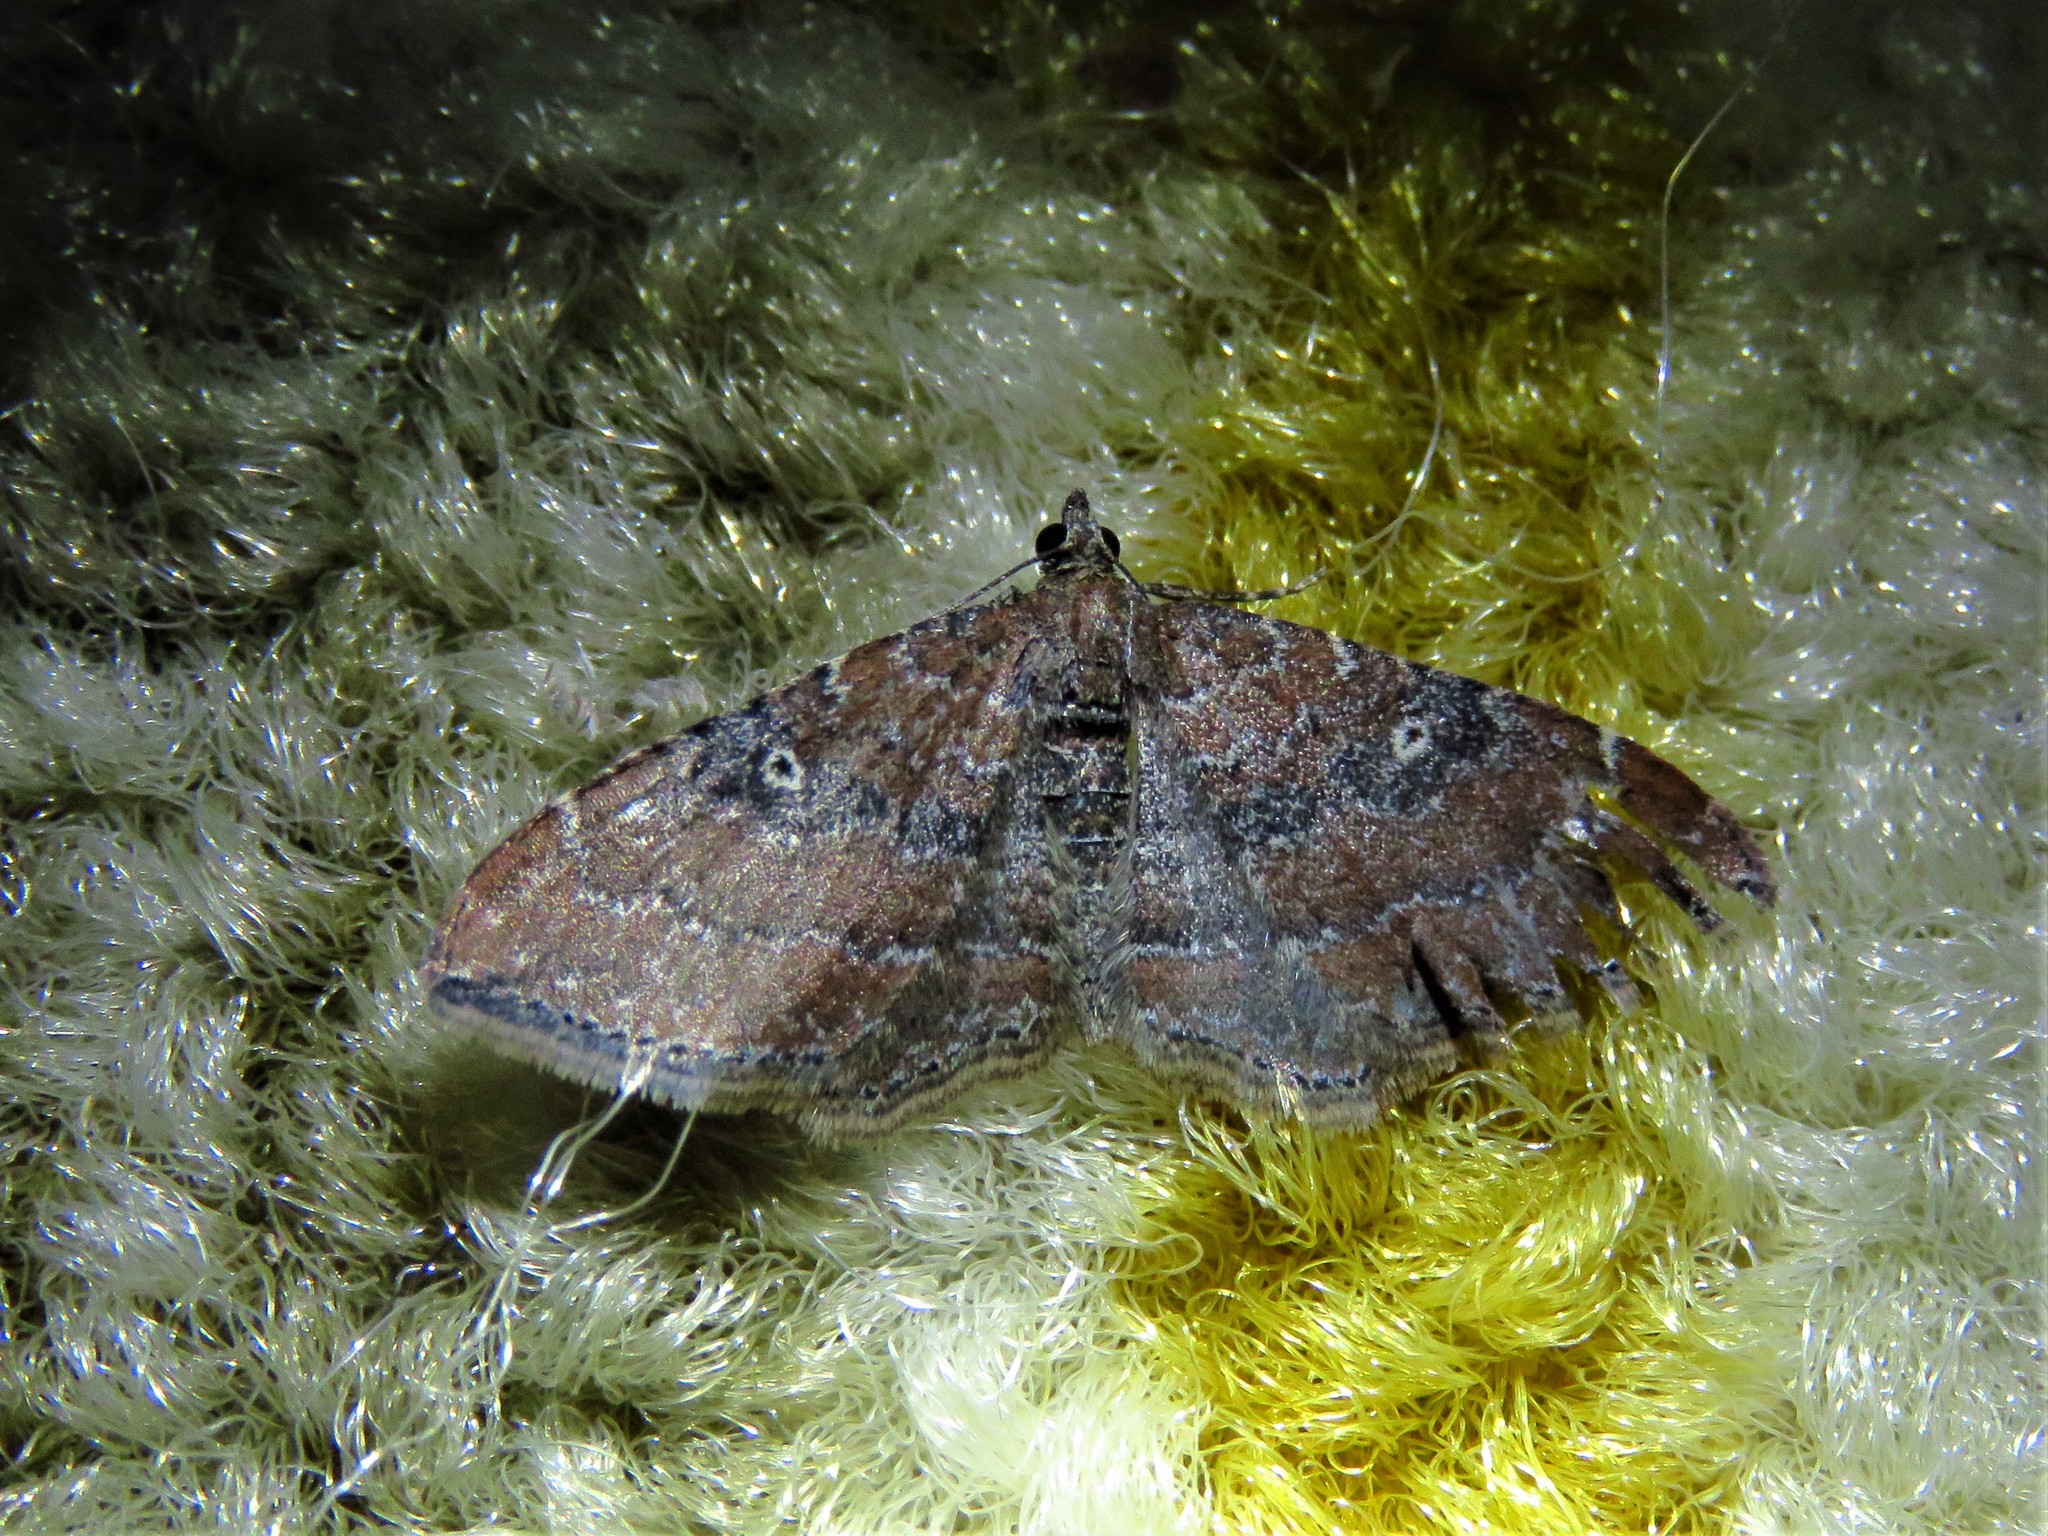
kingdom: Animalia
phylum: Arthropoda
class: Insecta
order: Lepidoptera
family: Geometridae
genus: Orthonama
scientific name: Orthonama obstipata
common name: The gem
